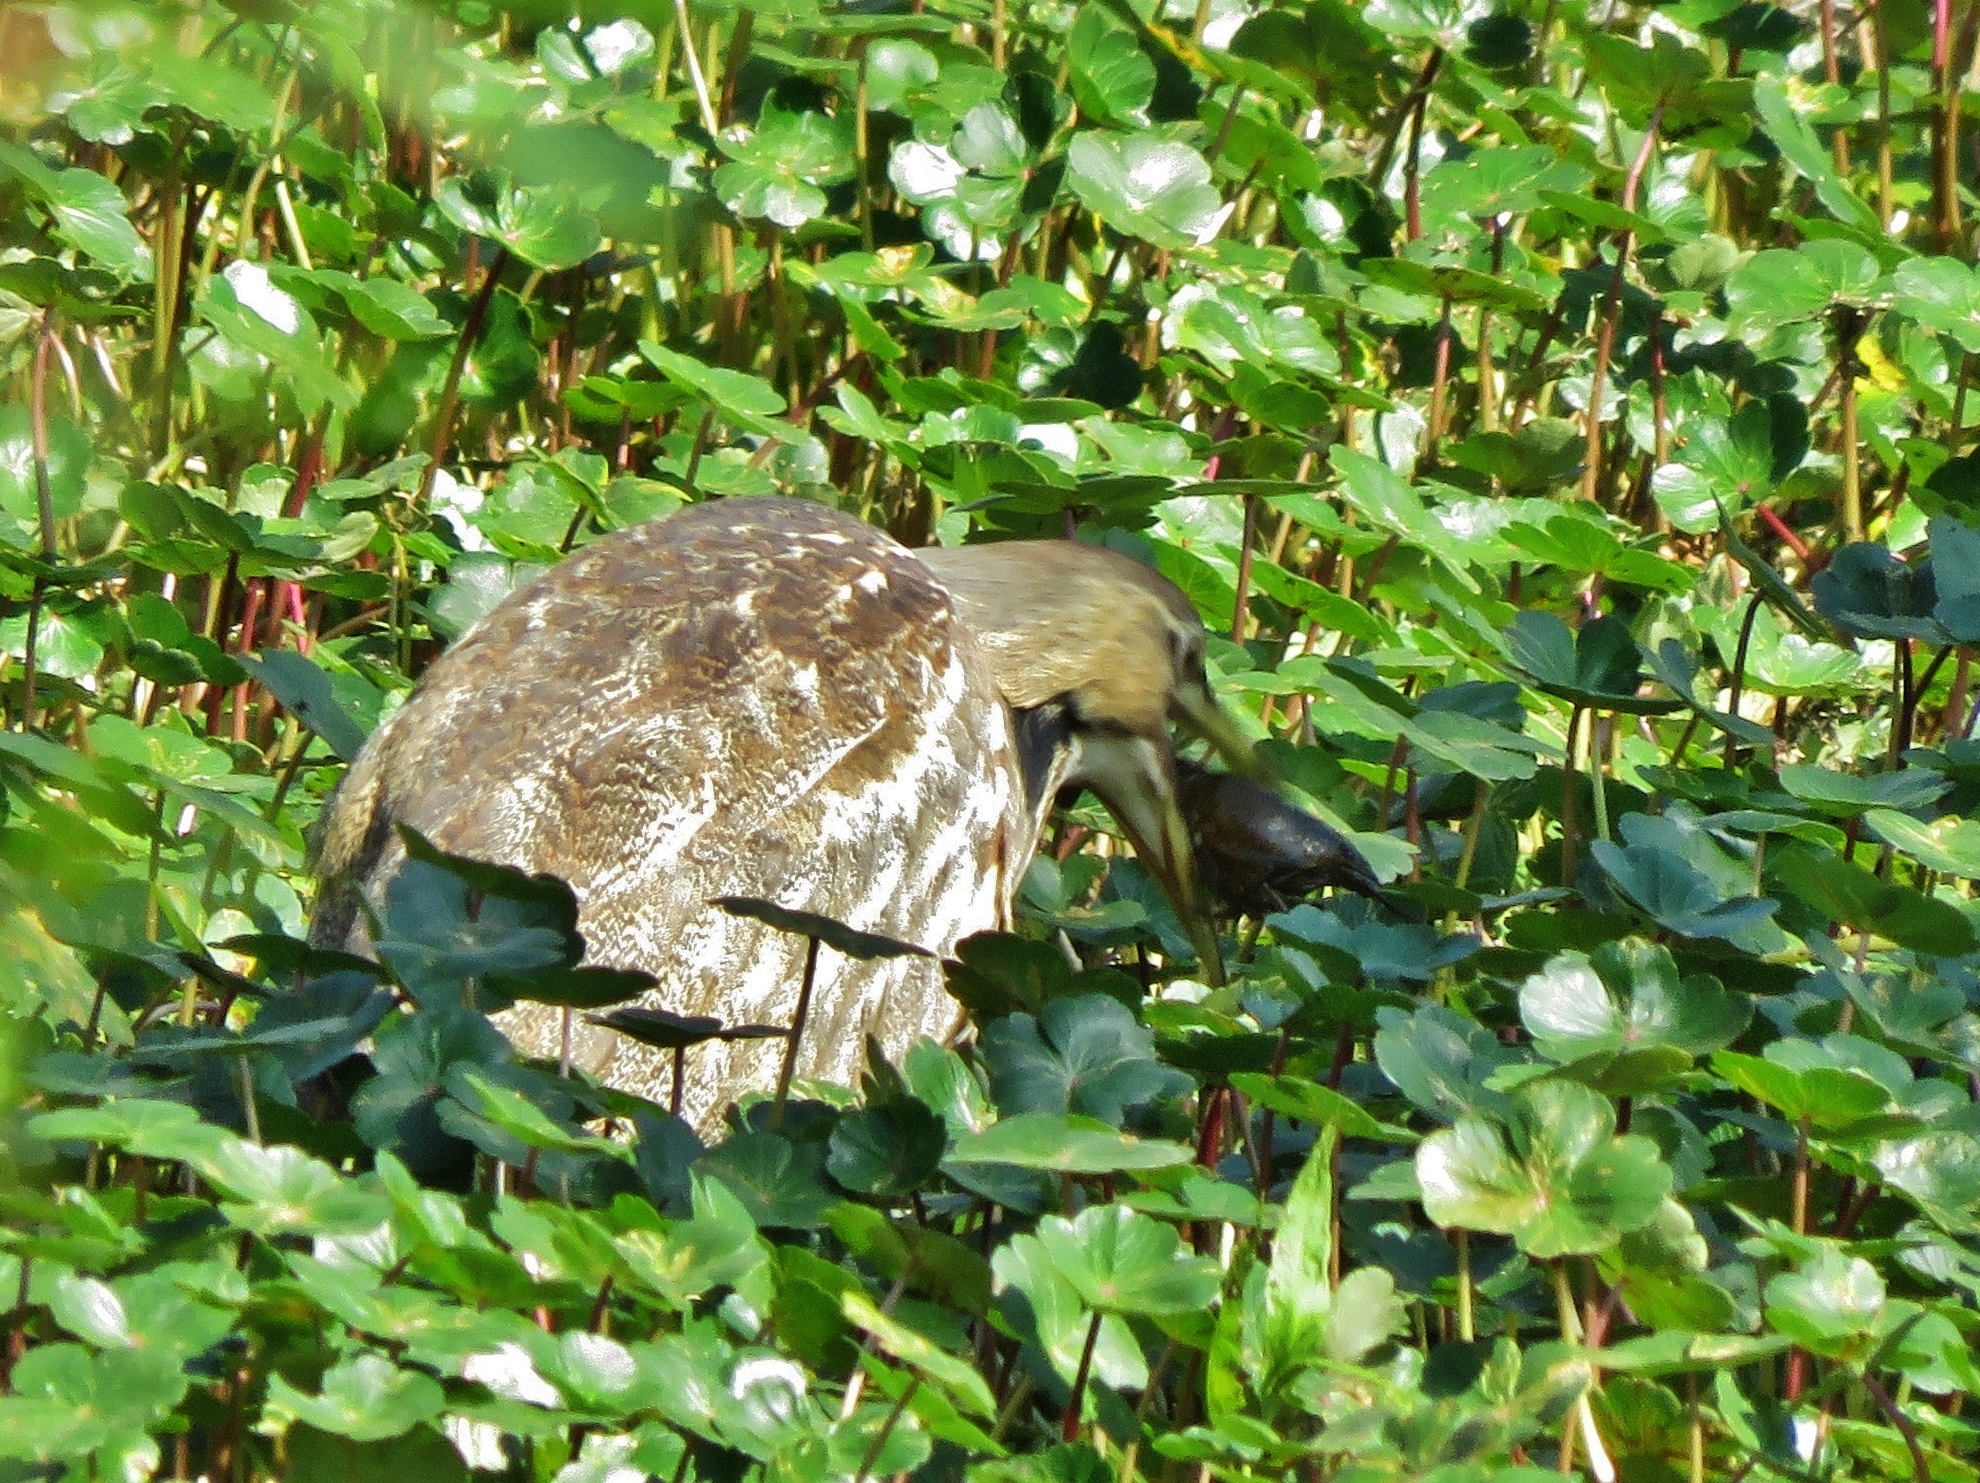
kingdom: Plantae
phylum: Tracheophyta
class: Magnoliopsida
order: Apiales
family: Araliaceae
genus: Hydrocotyle
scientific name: Hydrocotyle ranunculoides
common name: Floating pennywort
